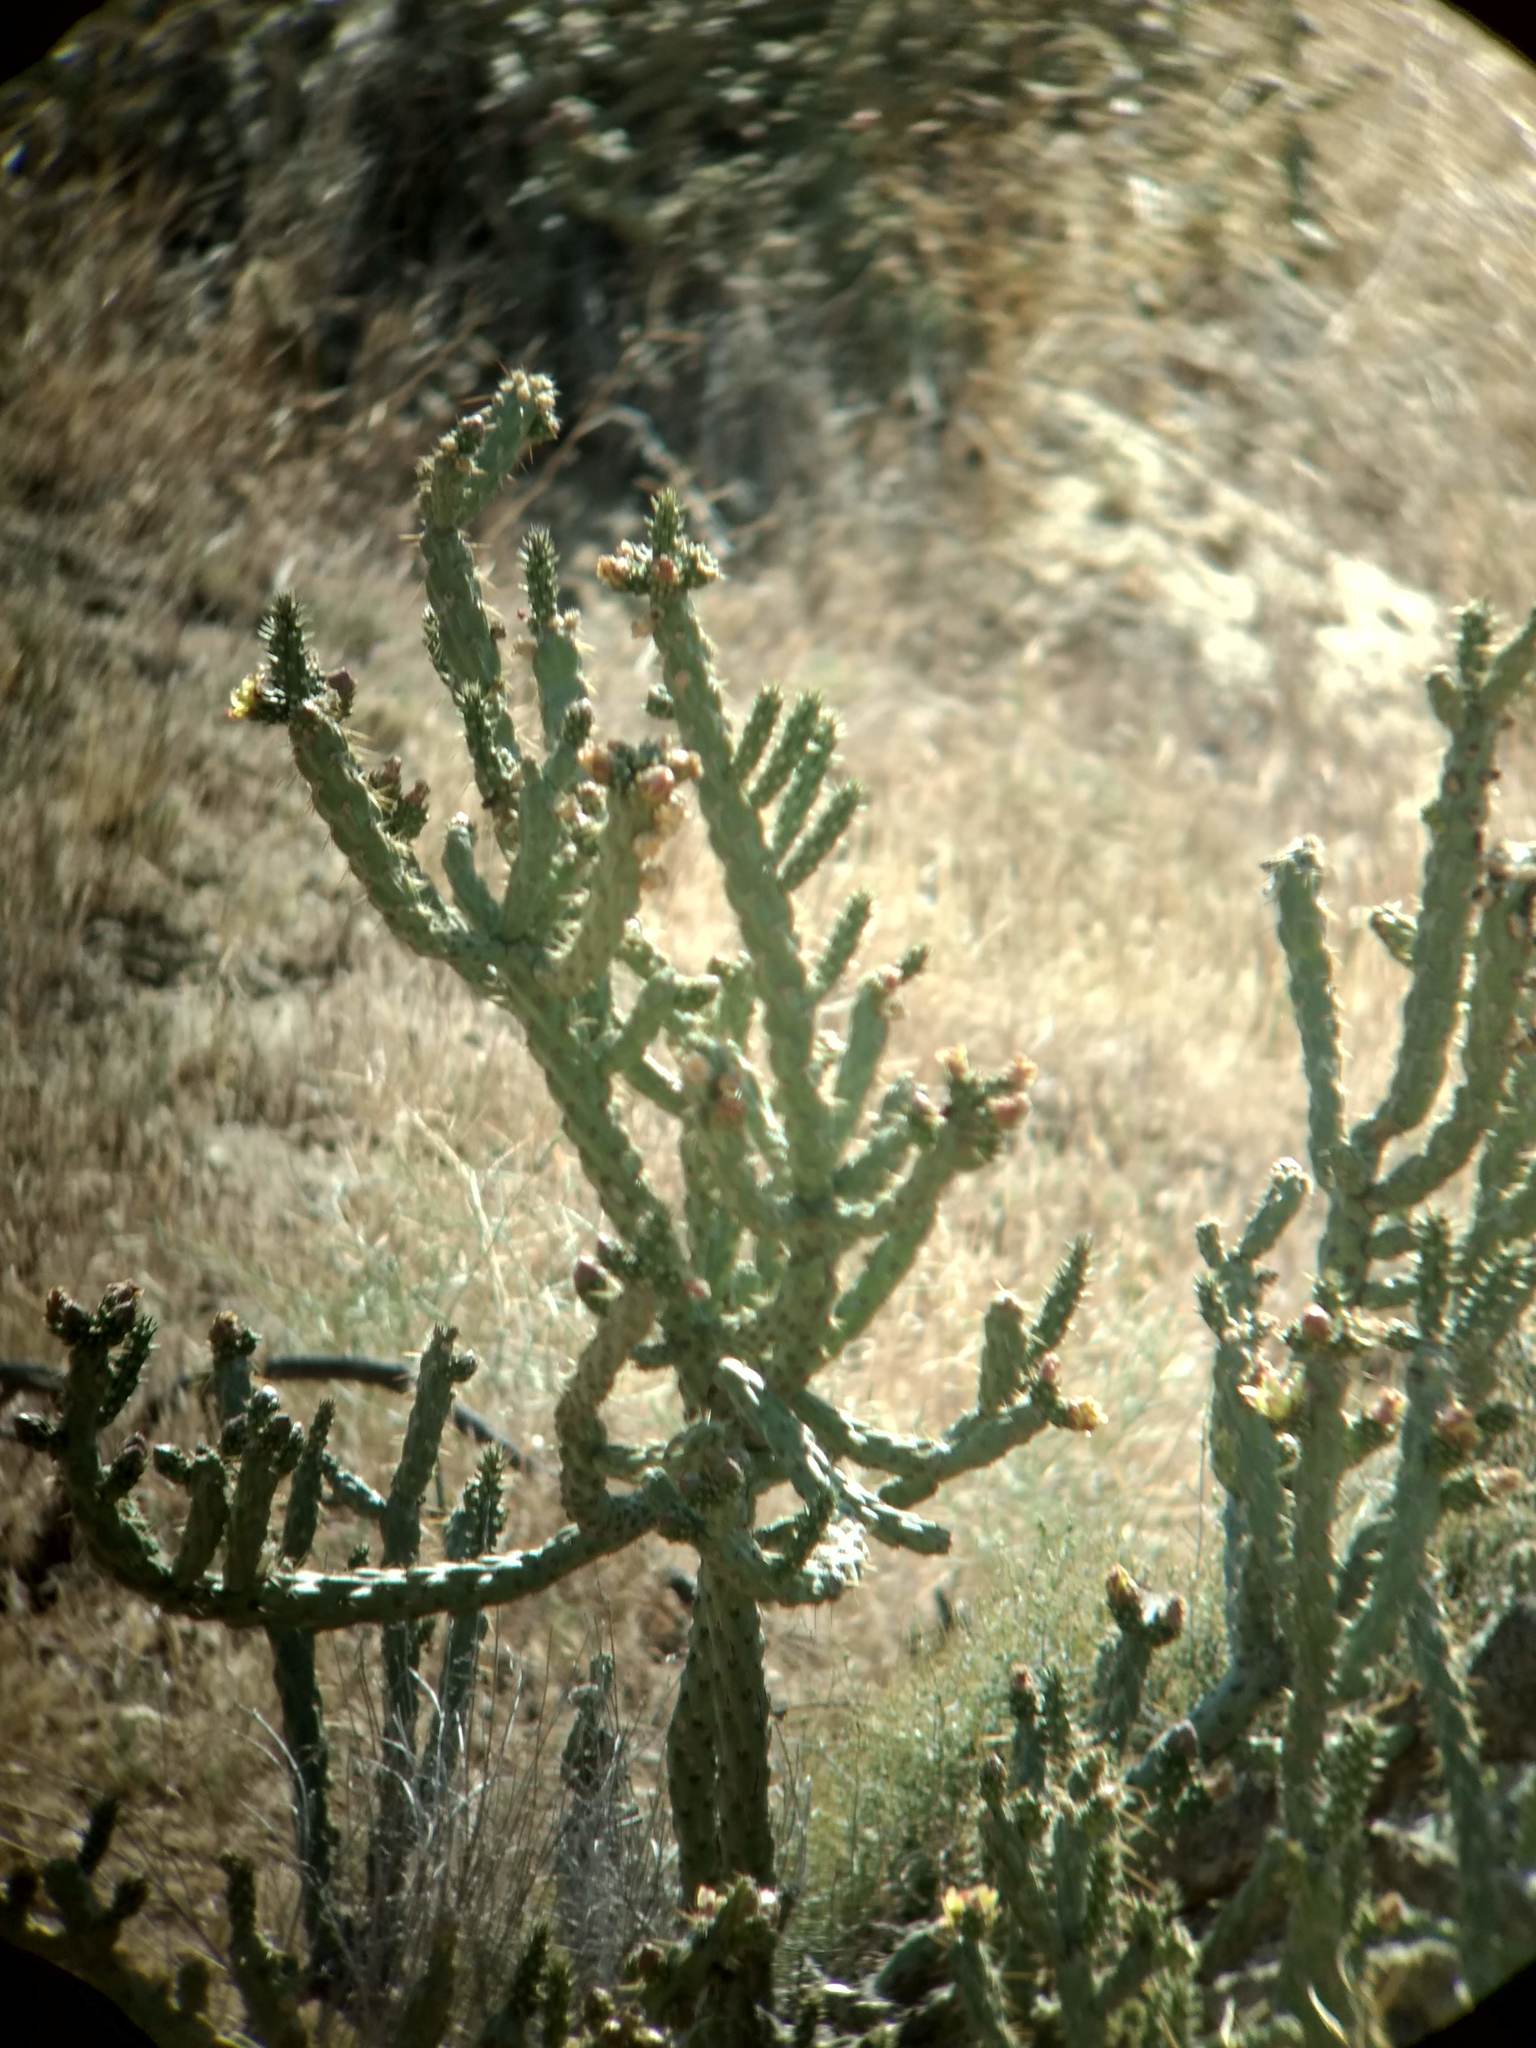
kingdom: Plantae
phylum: Tracheophyta
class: Magnoliopsida
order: Caryophyllales
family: Cactaceae
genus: Cylindropuntia
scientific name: Cylindropuntia bernardina
